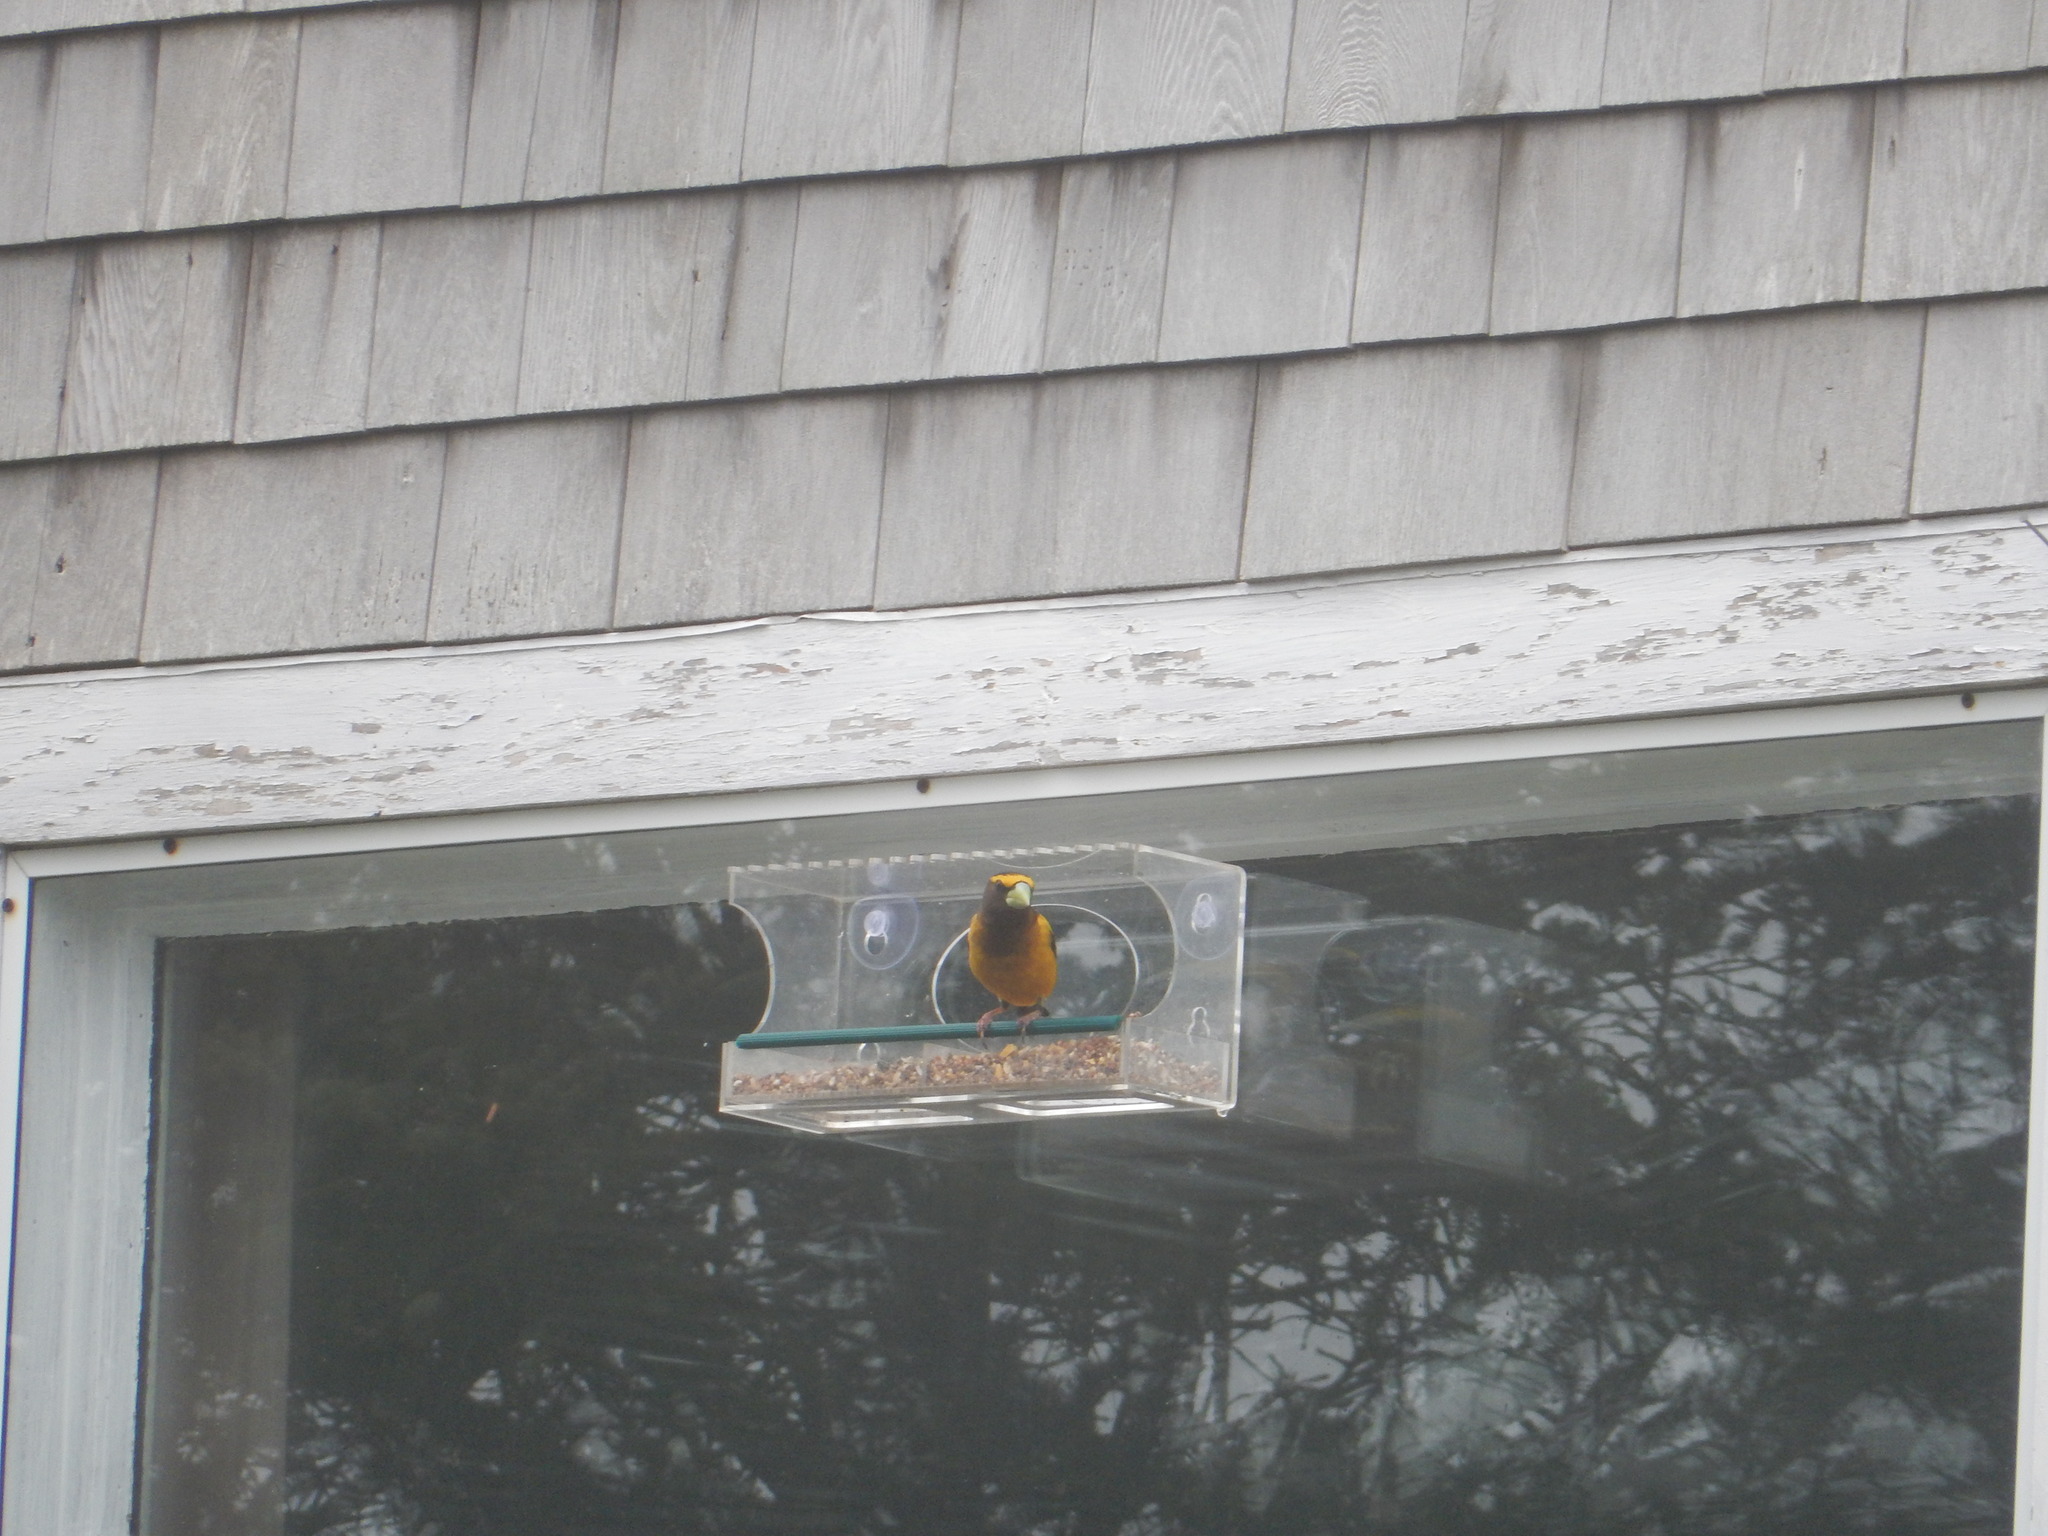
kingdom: Animalia
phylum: Chordata
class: Aves
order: Passeriformes
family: Fringillidae
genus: Hesperiphona
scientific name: Hesperiphona vespertina
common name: Evening grosbeak
